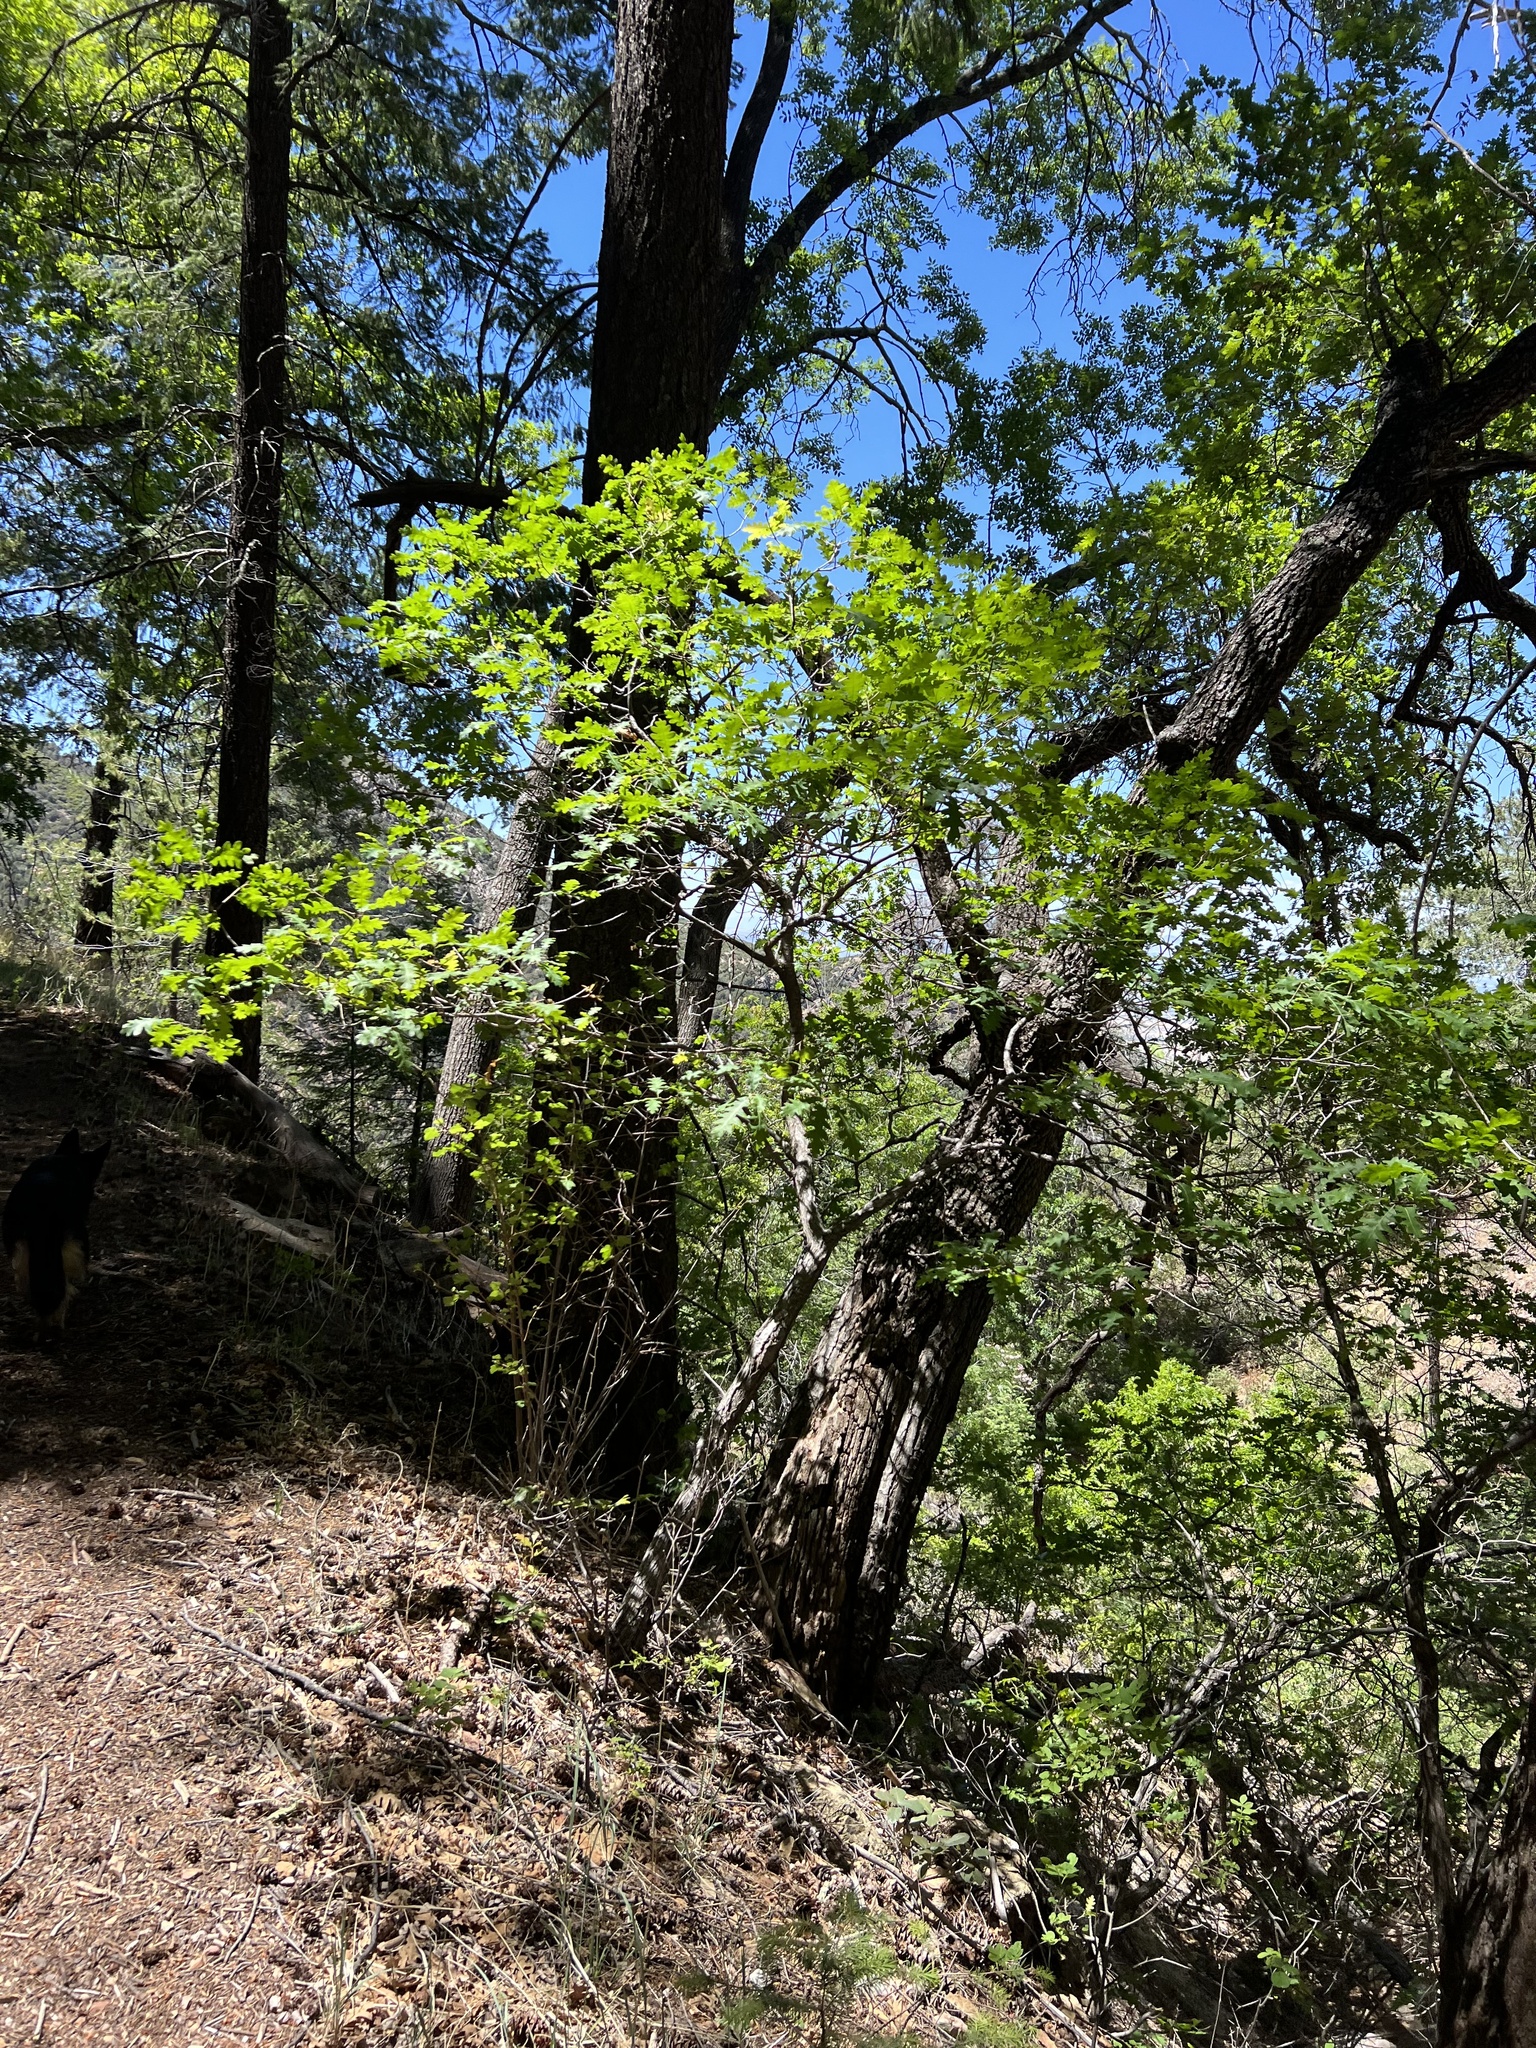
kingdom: Plantae
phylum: Tracheophyta
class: Magnoliopsida
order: Fagales
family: Fagaceae
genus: Quercus
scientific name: Quercus gambelii
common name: Gambel oak
